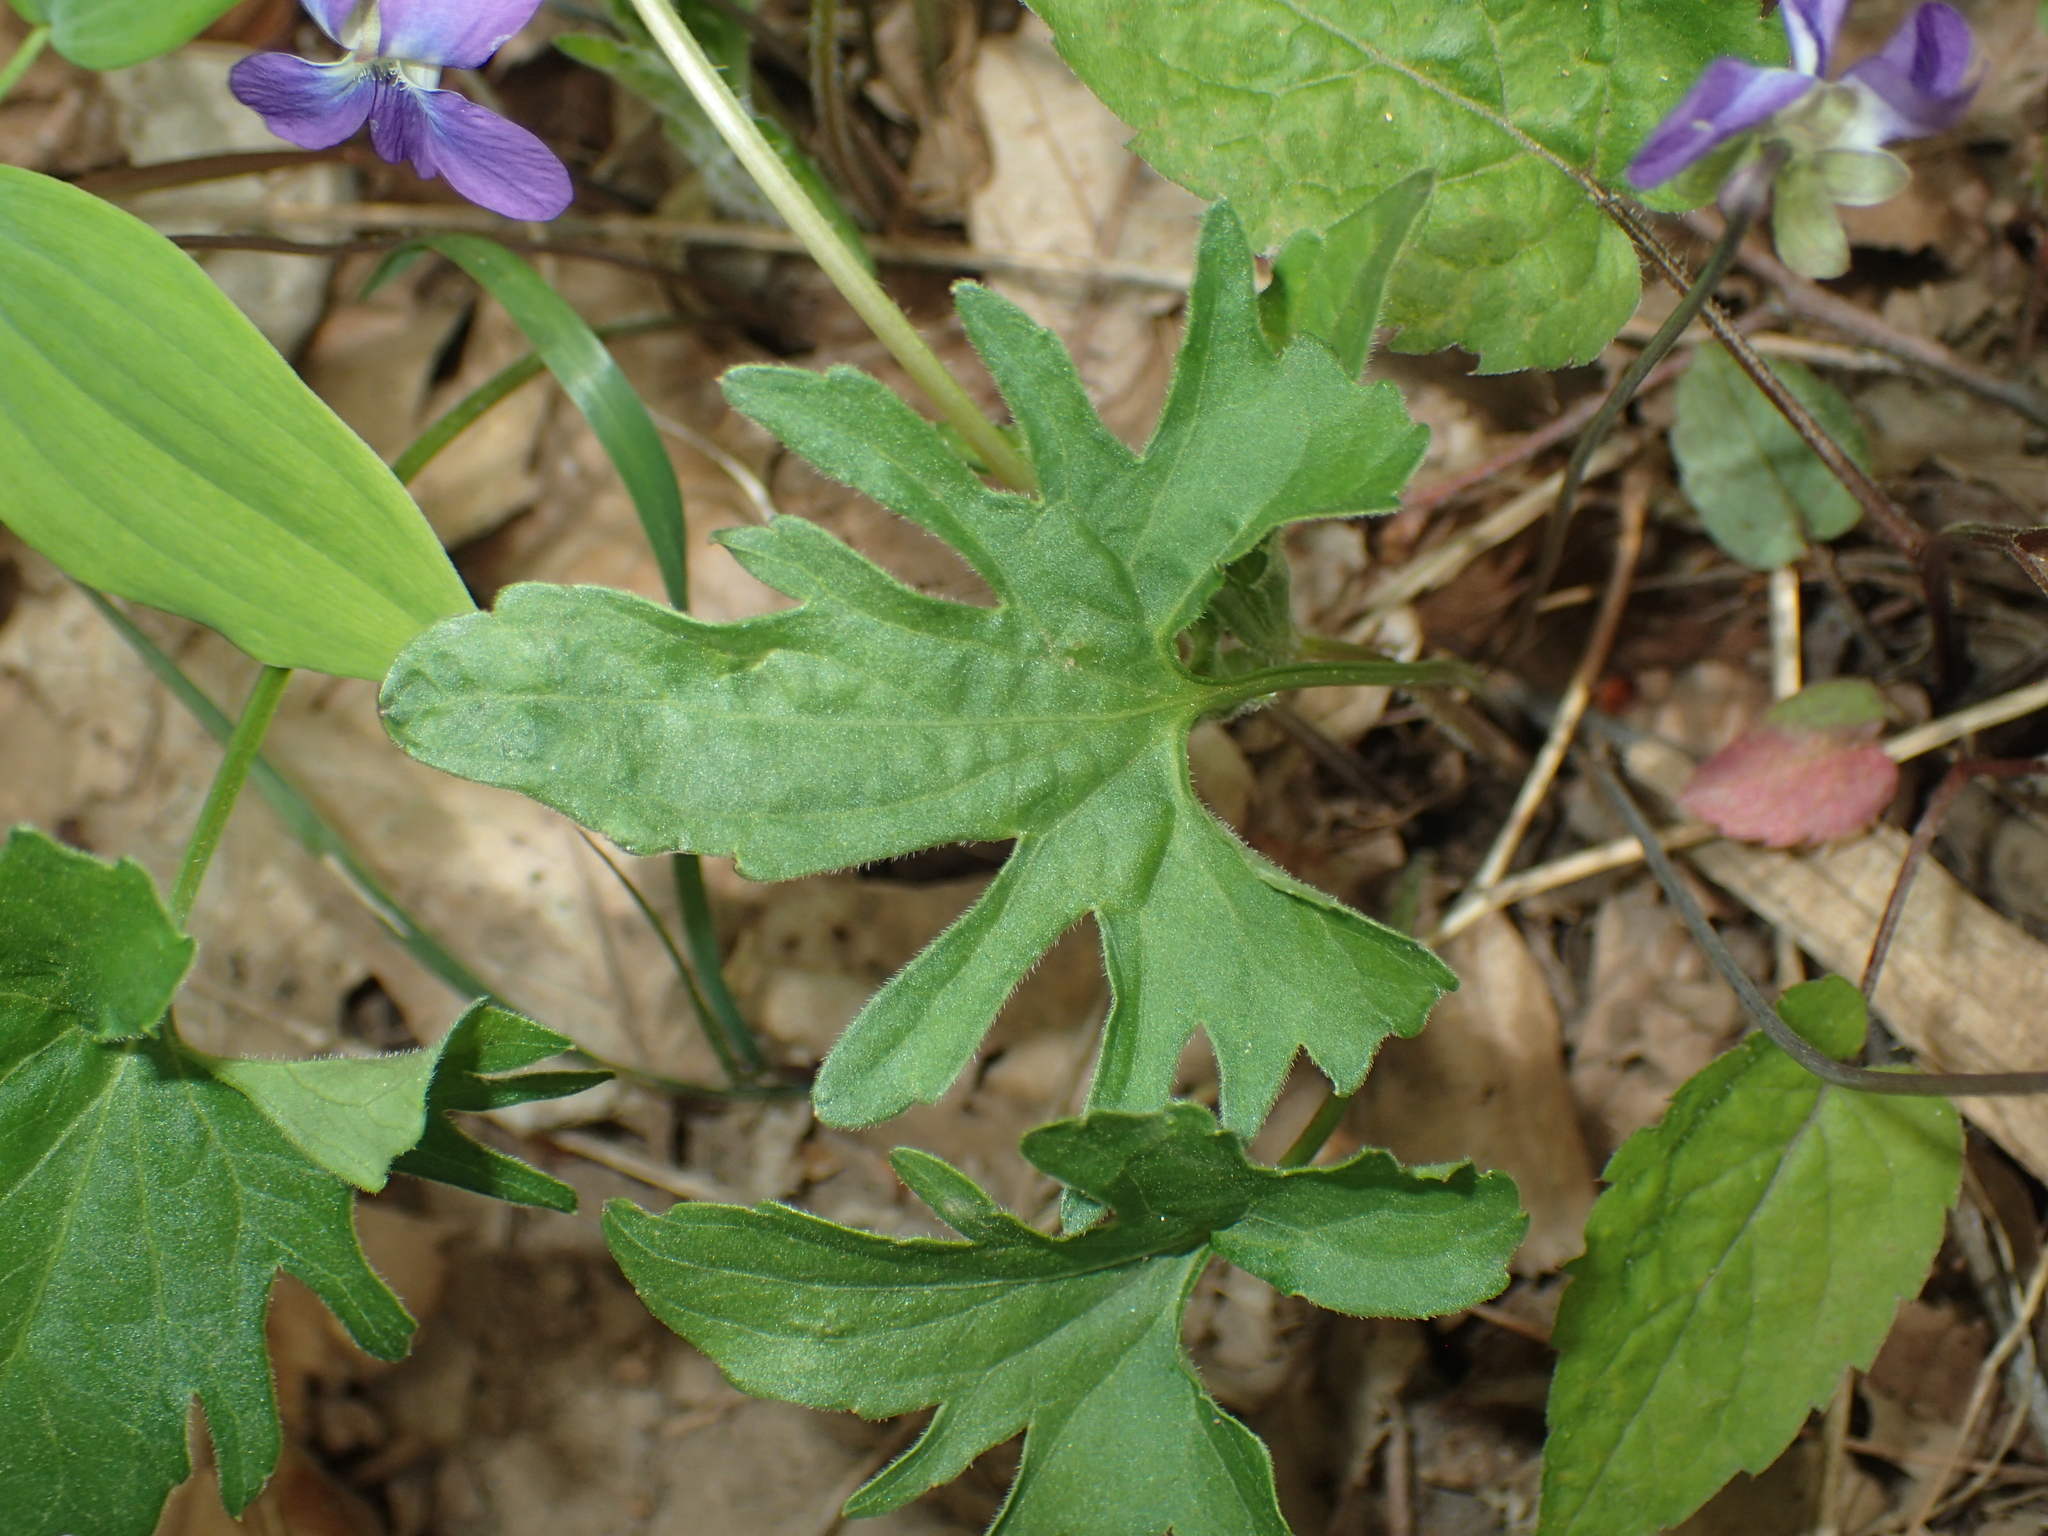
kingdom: Plantae
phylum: Tracheophyta
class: Magnoliopsida
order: Malpighiales
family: Violaceae
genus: Viola
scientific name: Viola subsinuata
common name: Wood violet
